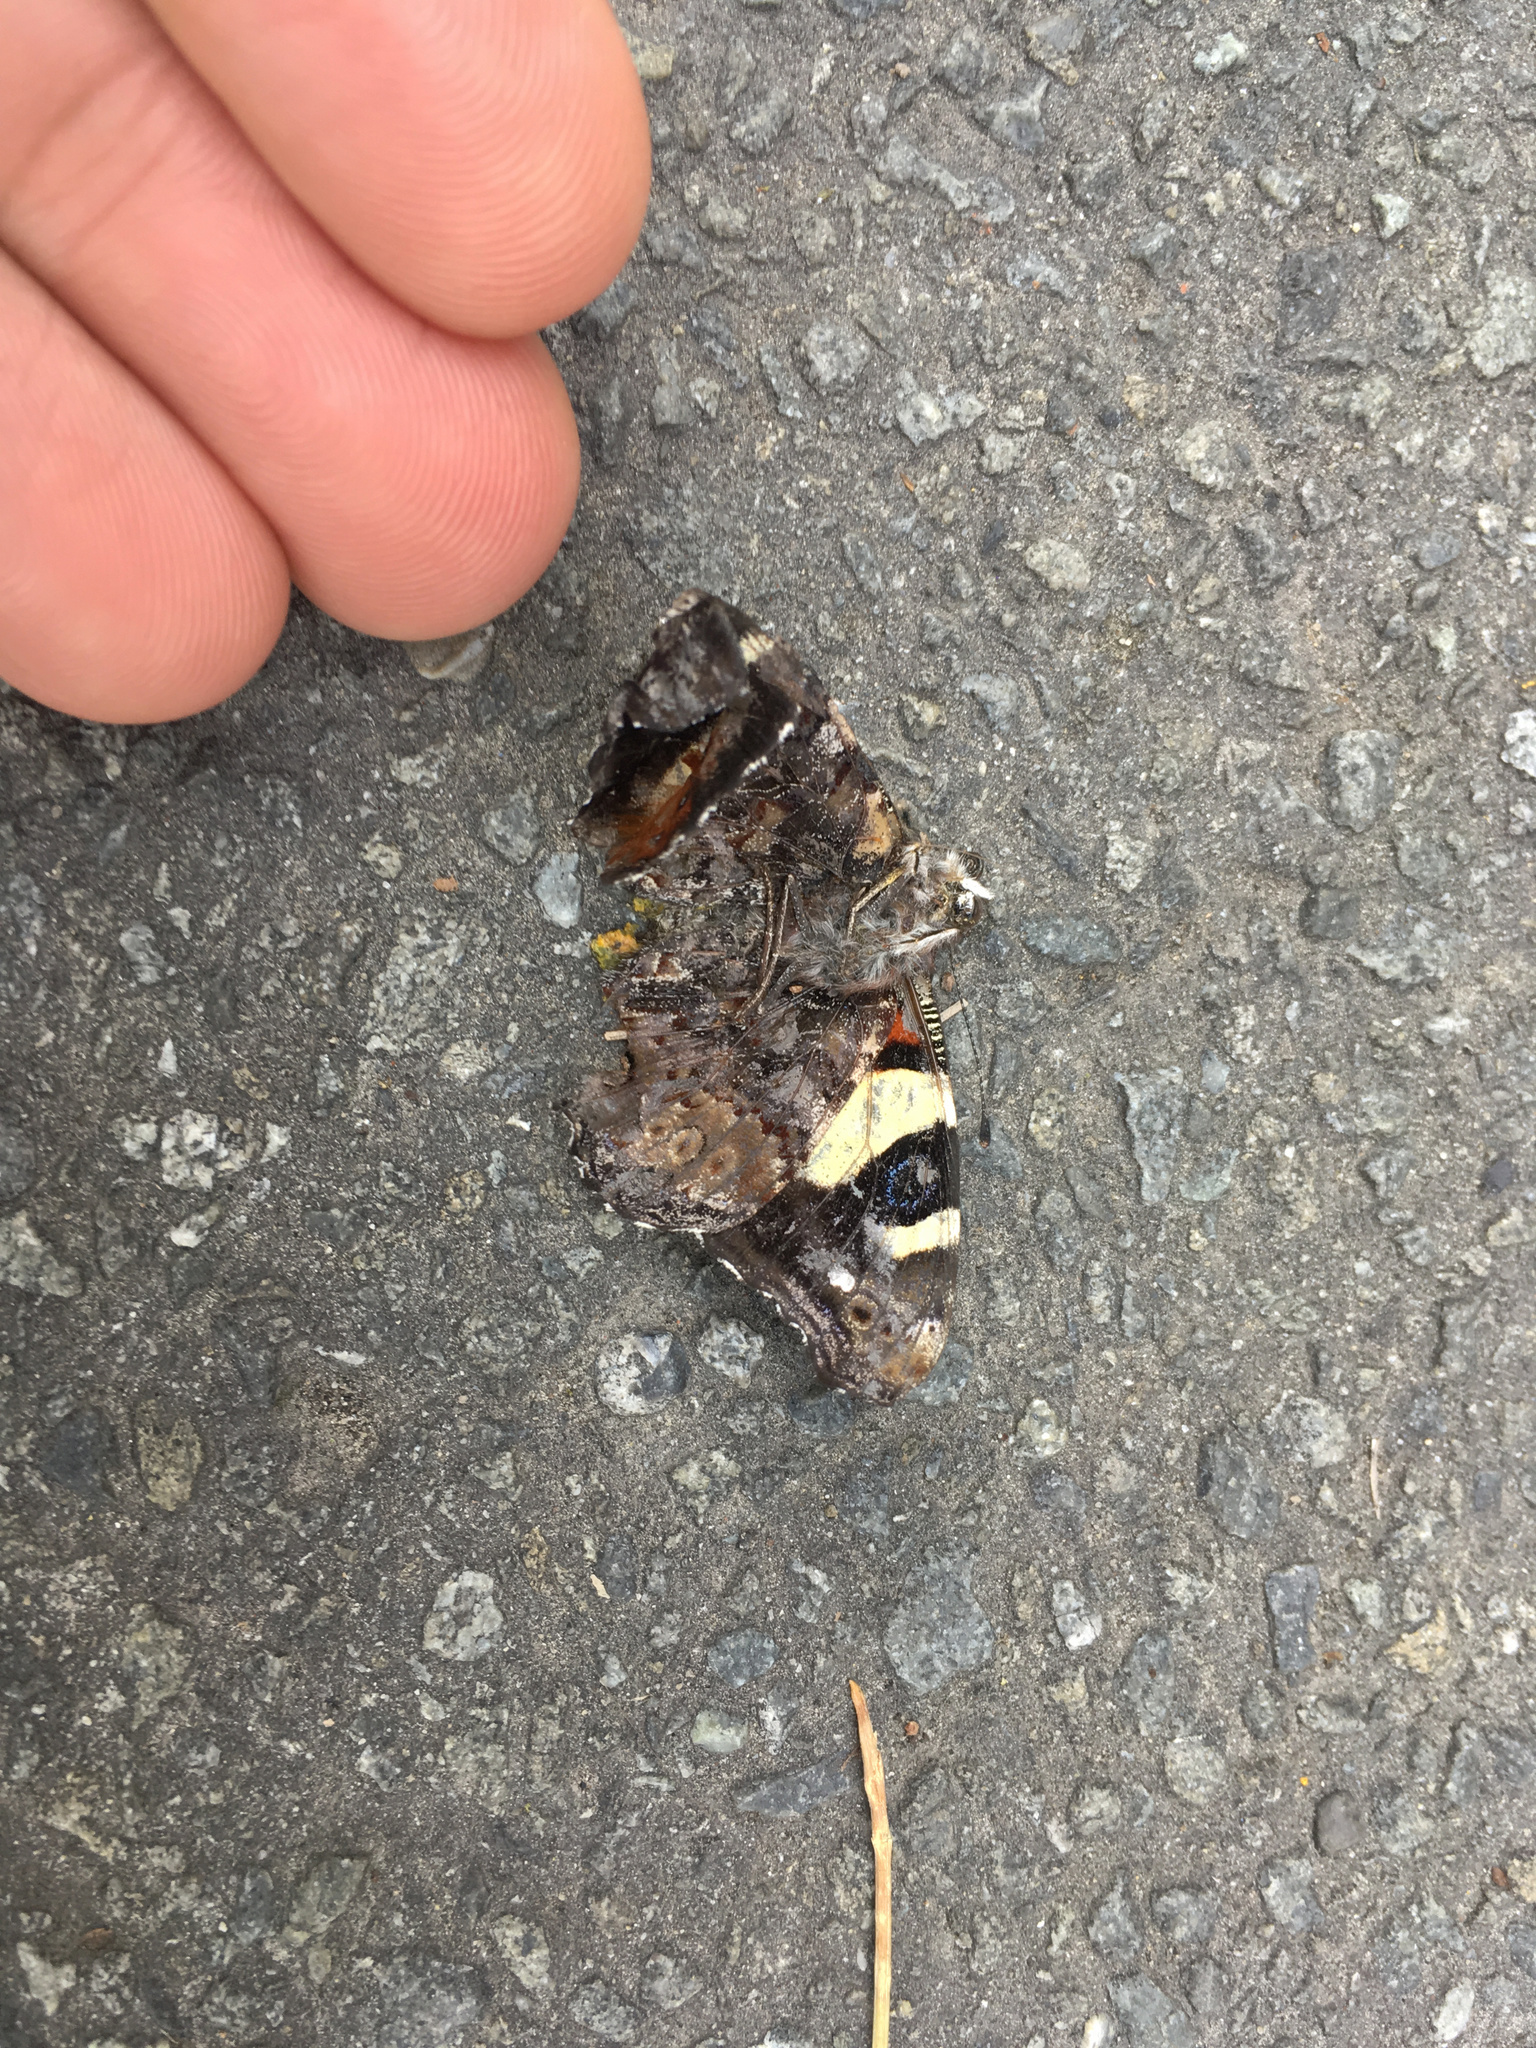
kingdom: Animalia
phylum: Arthropoda
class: Insecta
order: Lepidoptera
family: Nymphalidae
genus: Vanessa
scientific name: Vanessa itea
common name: Yellow admiral
